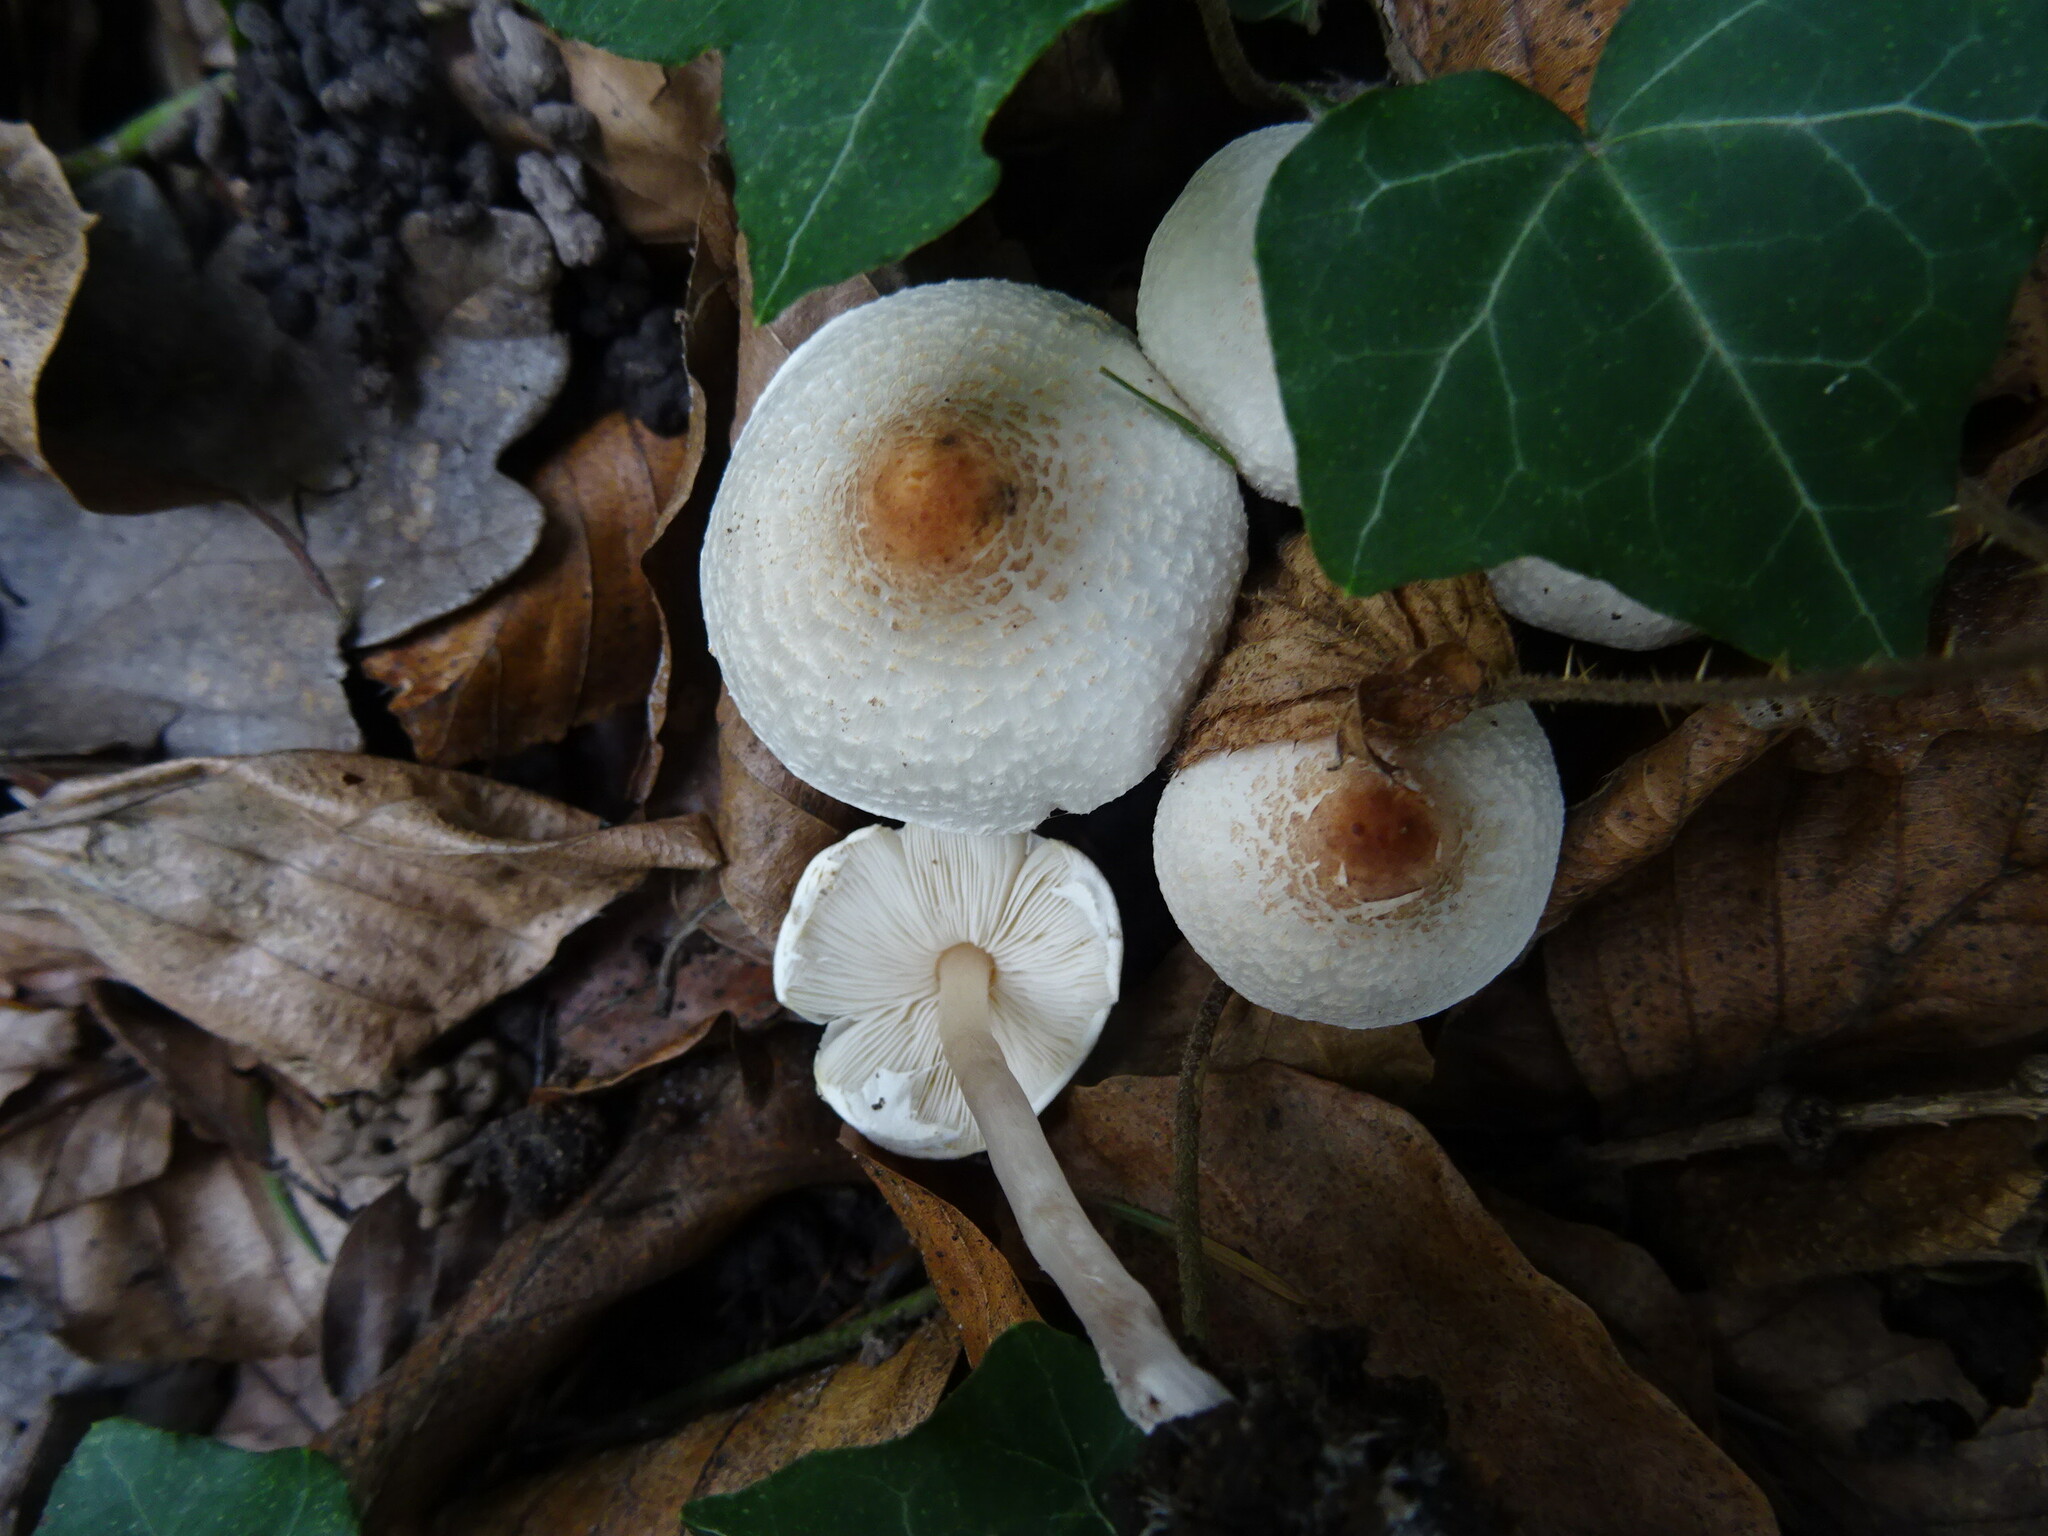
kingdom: Fungi
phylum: Basidiomycota
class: Agaricomycetes
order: Agaricales
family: Agaricaceae
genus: Lepiota
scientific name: Lepiota cristata
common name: Stinking dapperling
